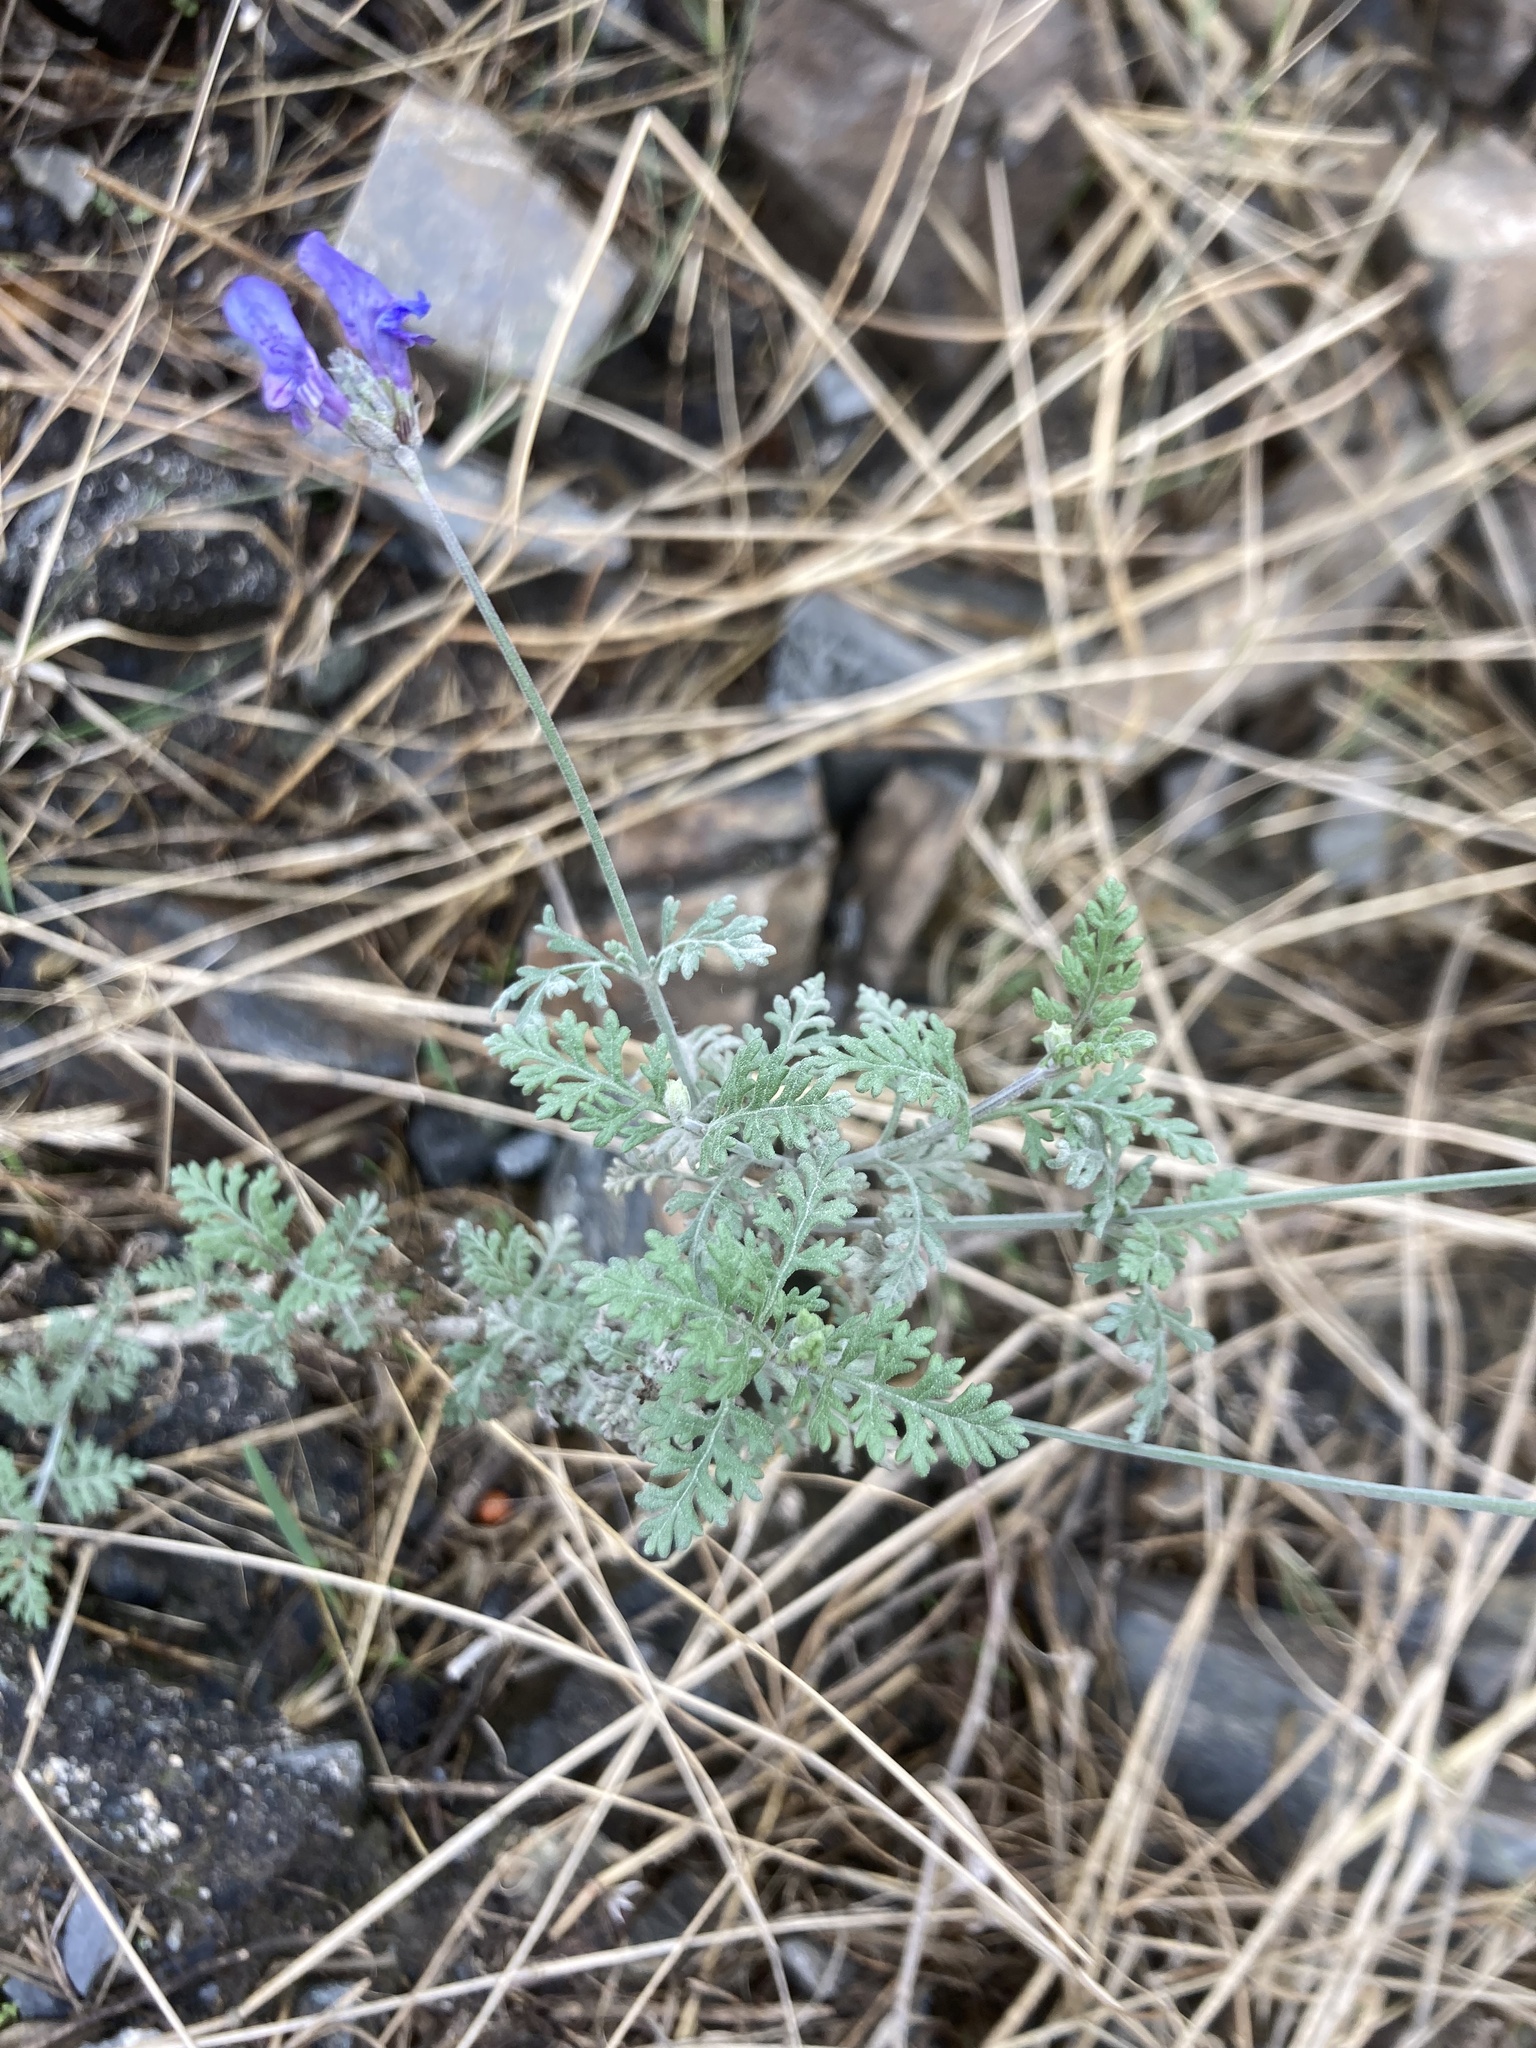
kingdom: Plantae
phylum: Tracheophyta
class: Magnoliopsida
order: Lamiales
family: Lamiaceae
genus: Lavandula
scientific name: Lavandula multifida
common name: Fern-leaf lavender
